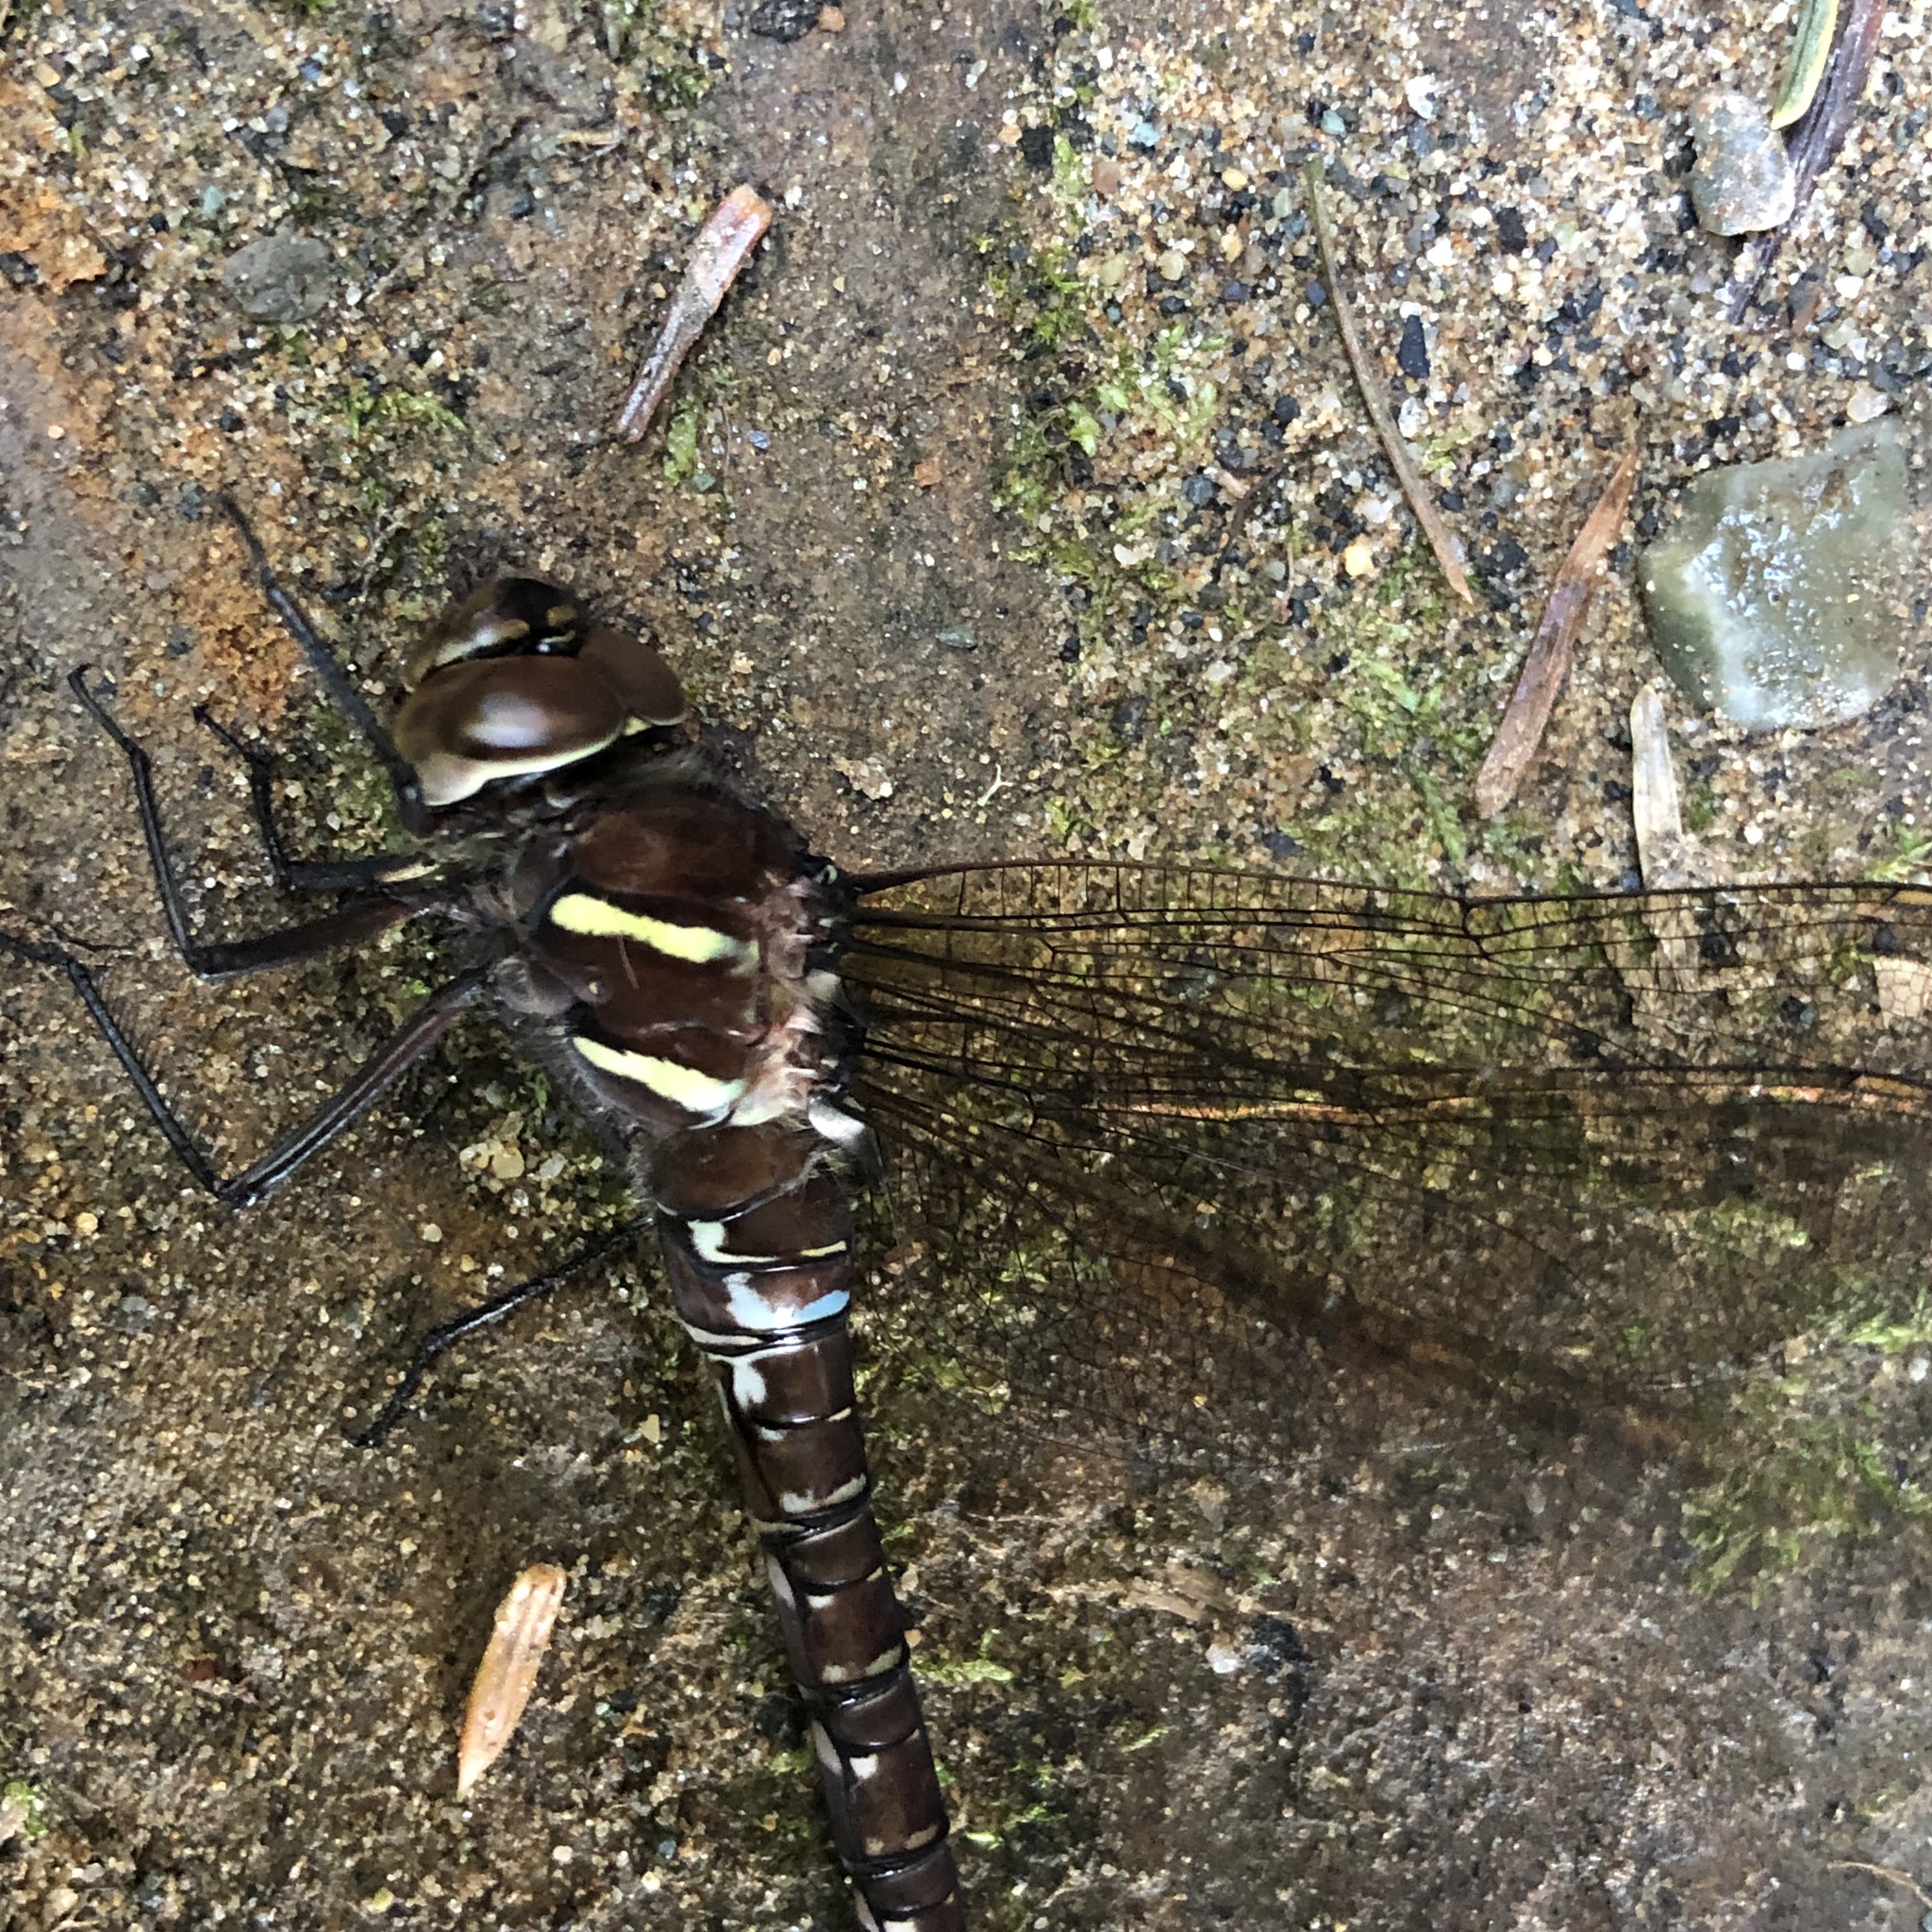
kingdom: Animalia
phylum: Arthropoda
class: Insecta
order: Odonata
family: Aeshnidae
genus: Aeshna
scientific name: Aeshna umbrosa
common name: Shadow darner
